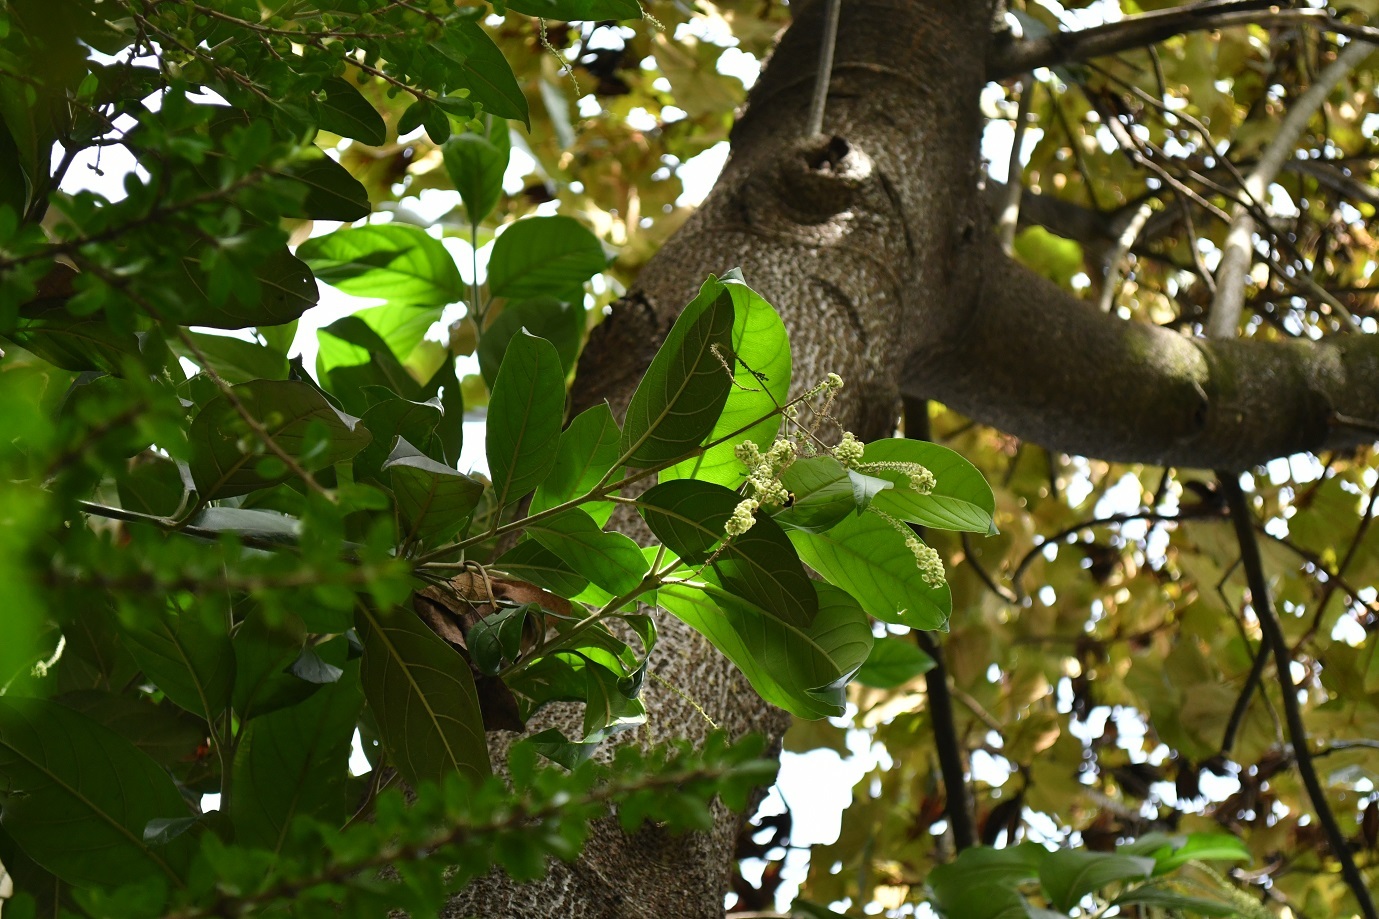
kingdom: Plantae
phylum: Tracheophyta
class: Magnoliopsida
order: Lamiales
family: Verbenaceae
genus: Citharexylum
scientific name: Citharexylum mocinoi
